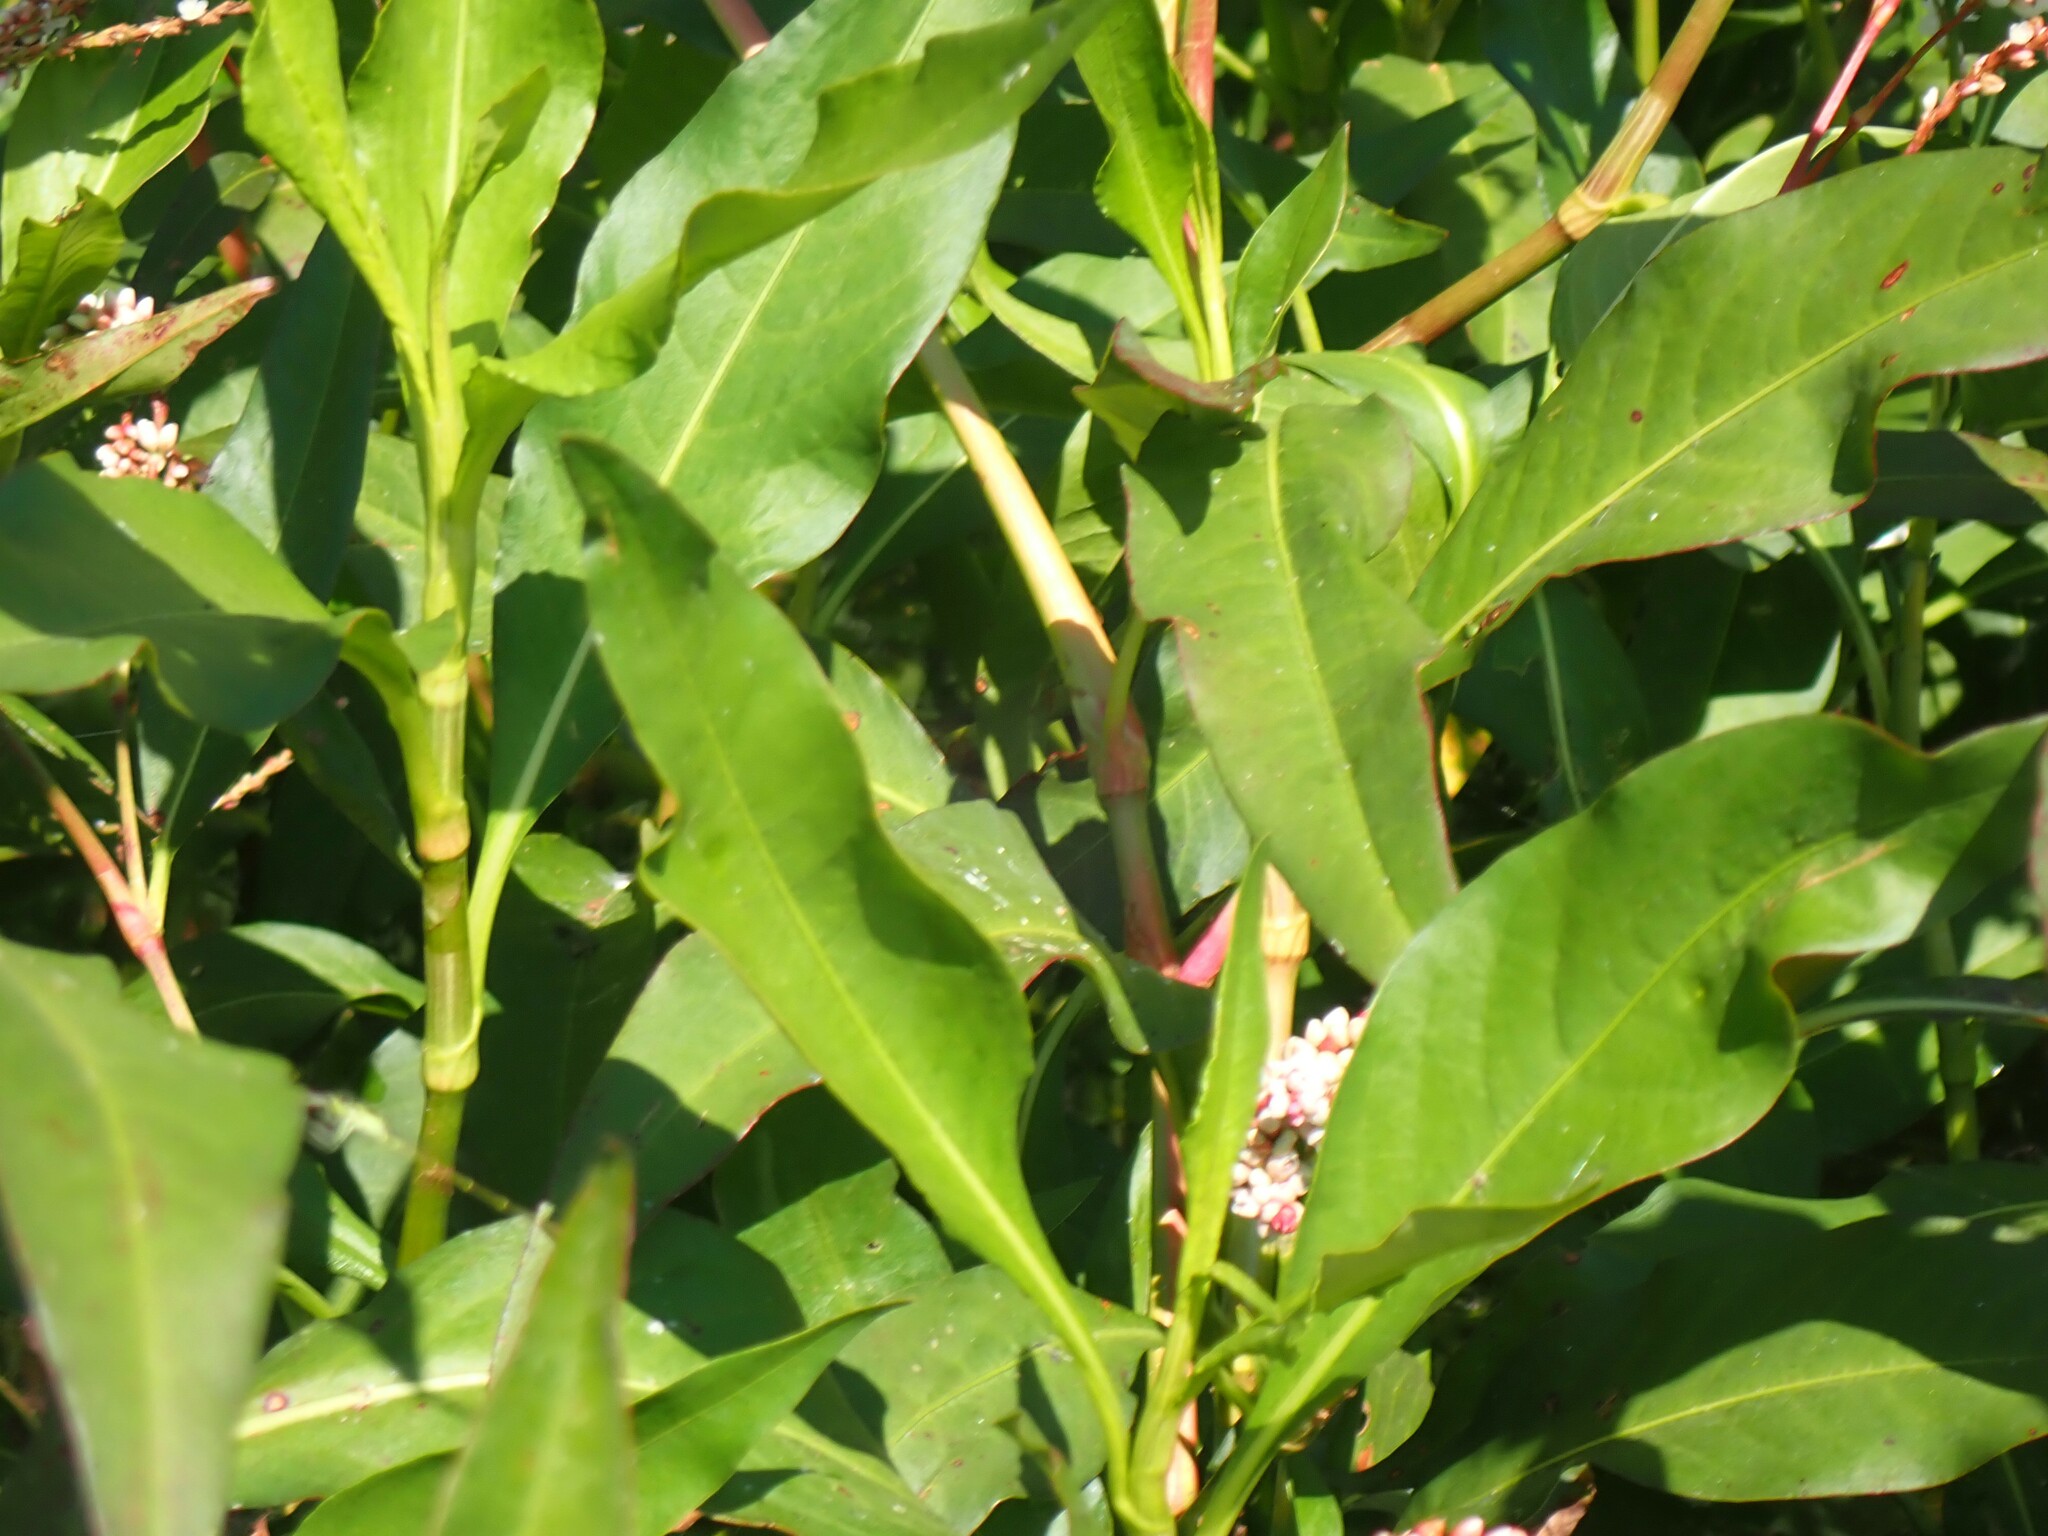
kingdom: Plantae
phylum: Tracheophyta
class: Magnoliopsida
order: Caryophyllales
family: Polygonaceae
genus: Persicaria
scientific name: Persicaria glabra
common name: Denseflower knotweed
